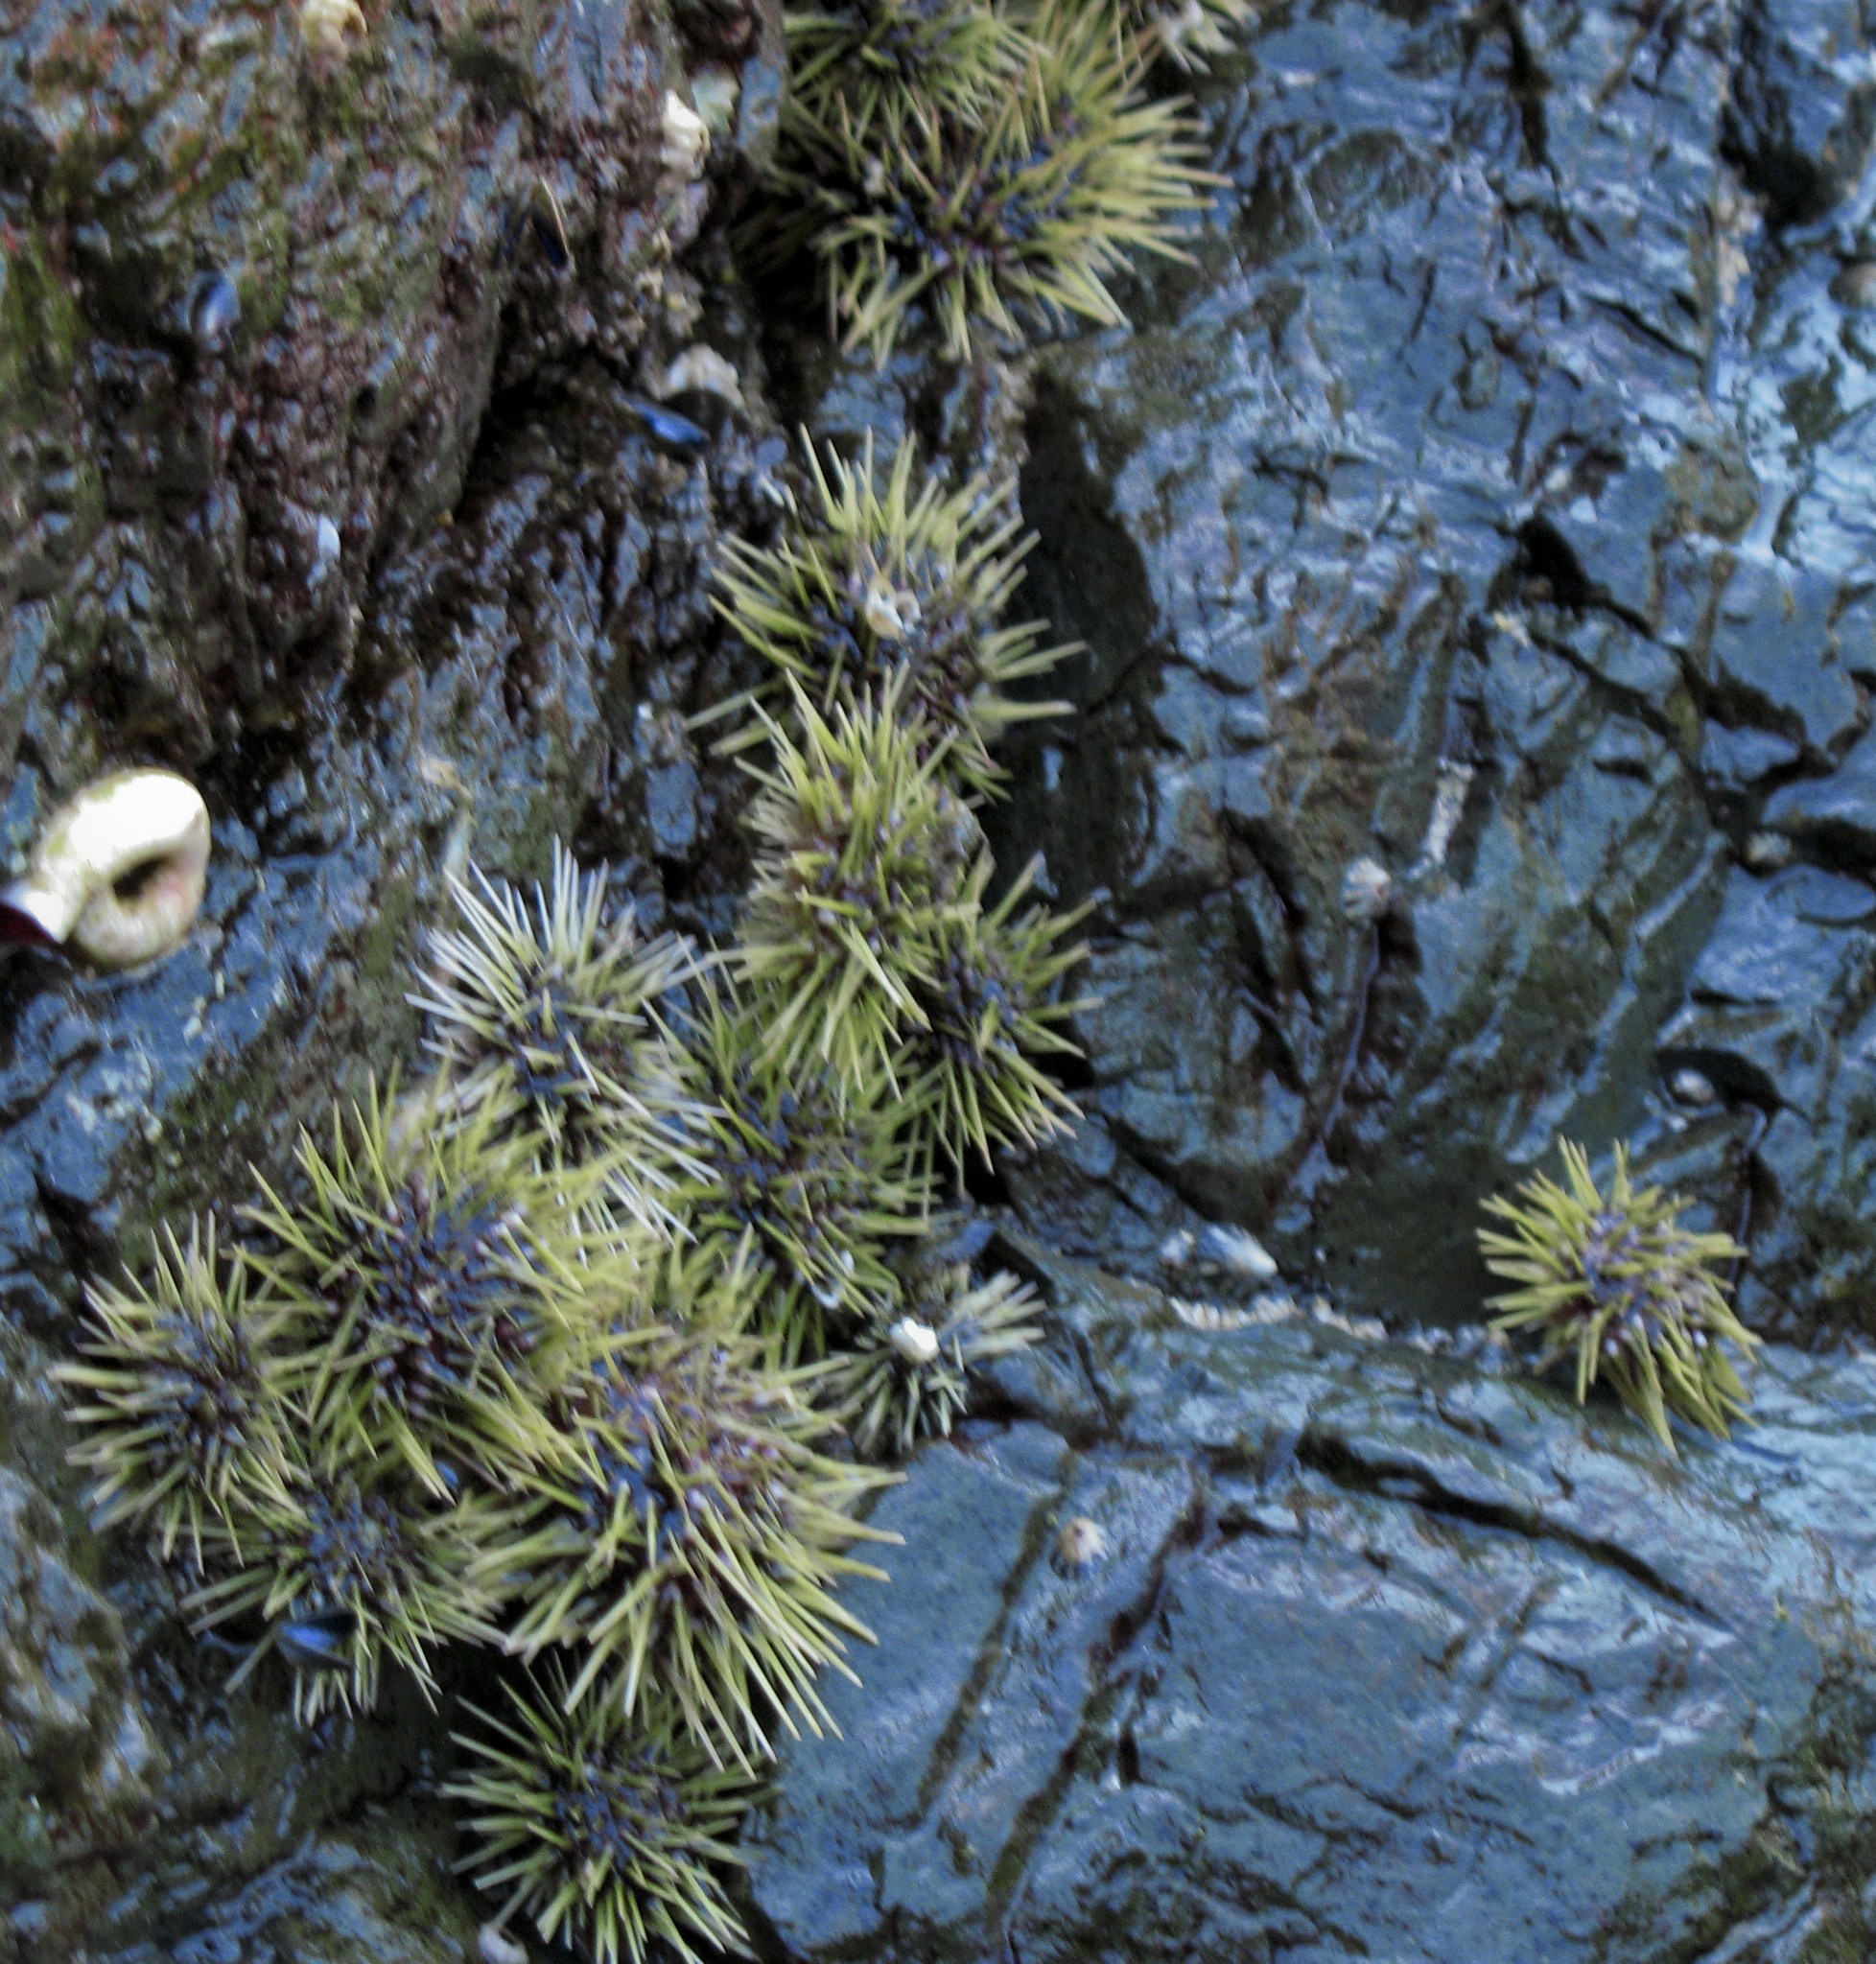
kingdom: Animalia
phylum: Echinodermata
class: Echinoidea
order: Camarodonta
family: Strongylocentrotidae
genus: Strongylocentrotus
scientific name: Strongylocentrotus droebachiensis
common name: Northern sea urchin
